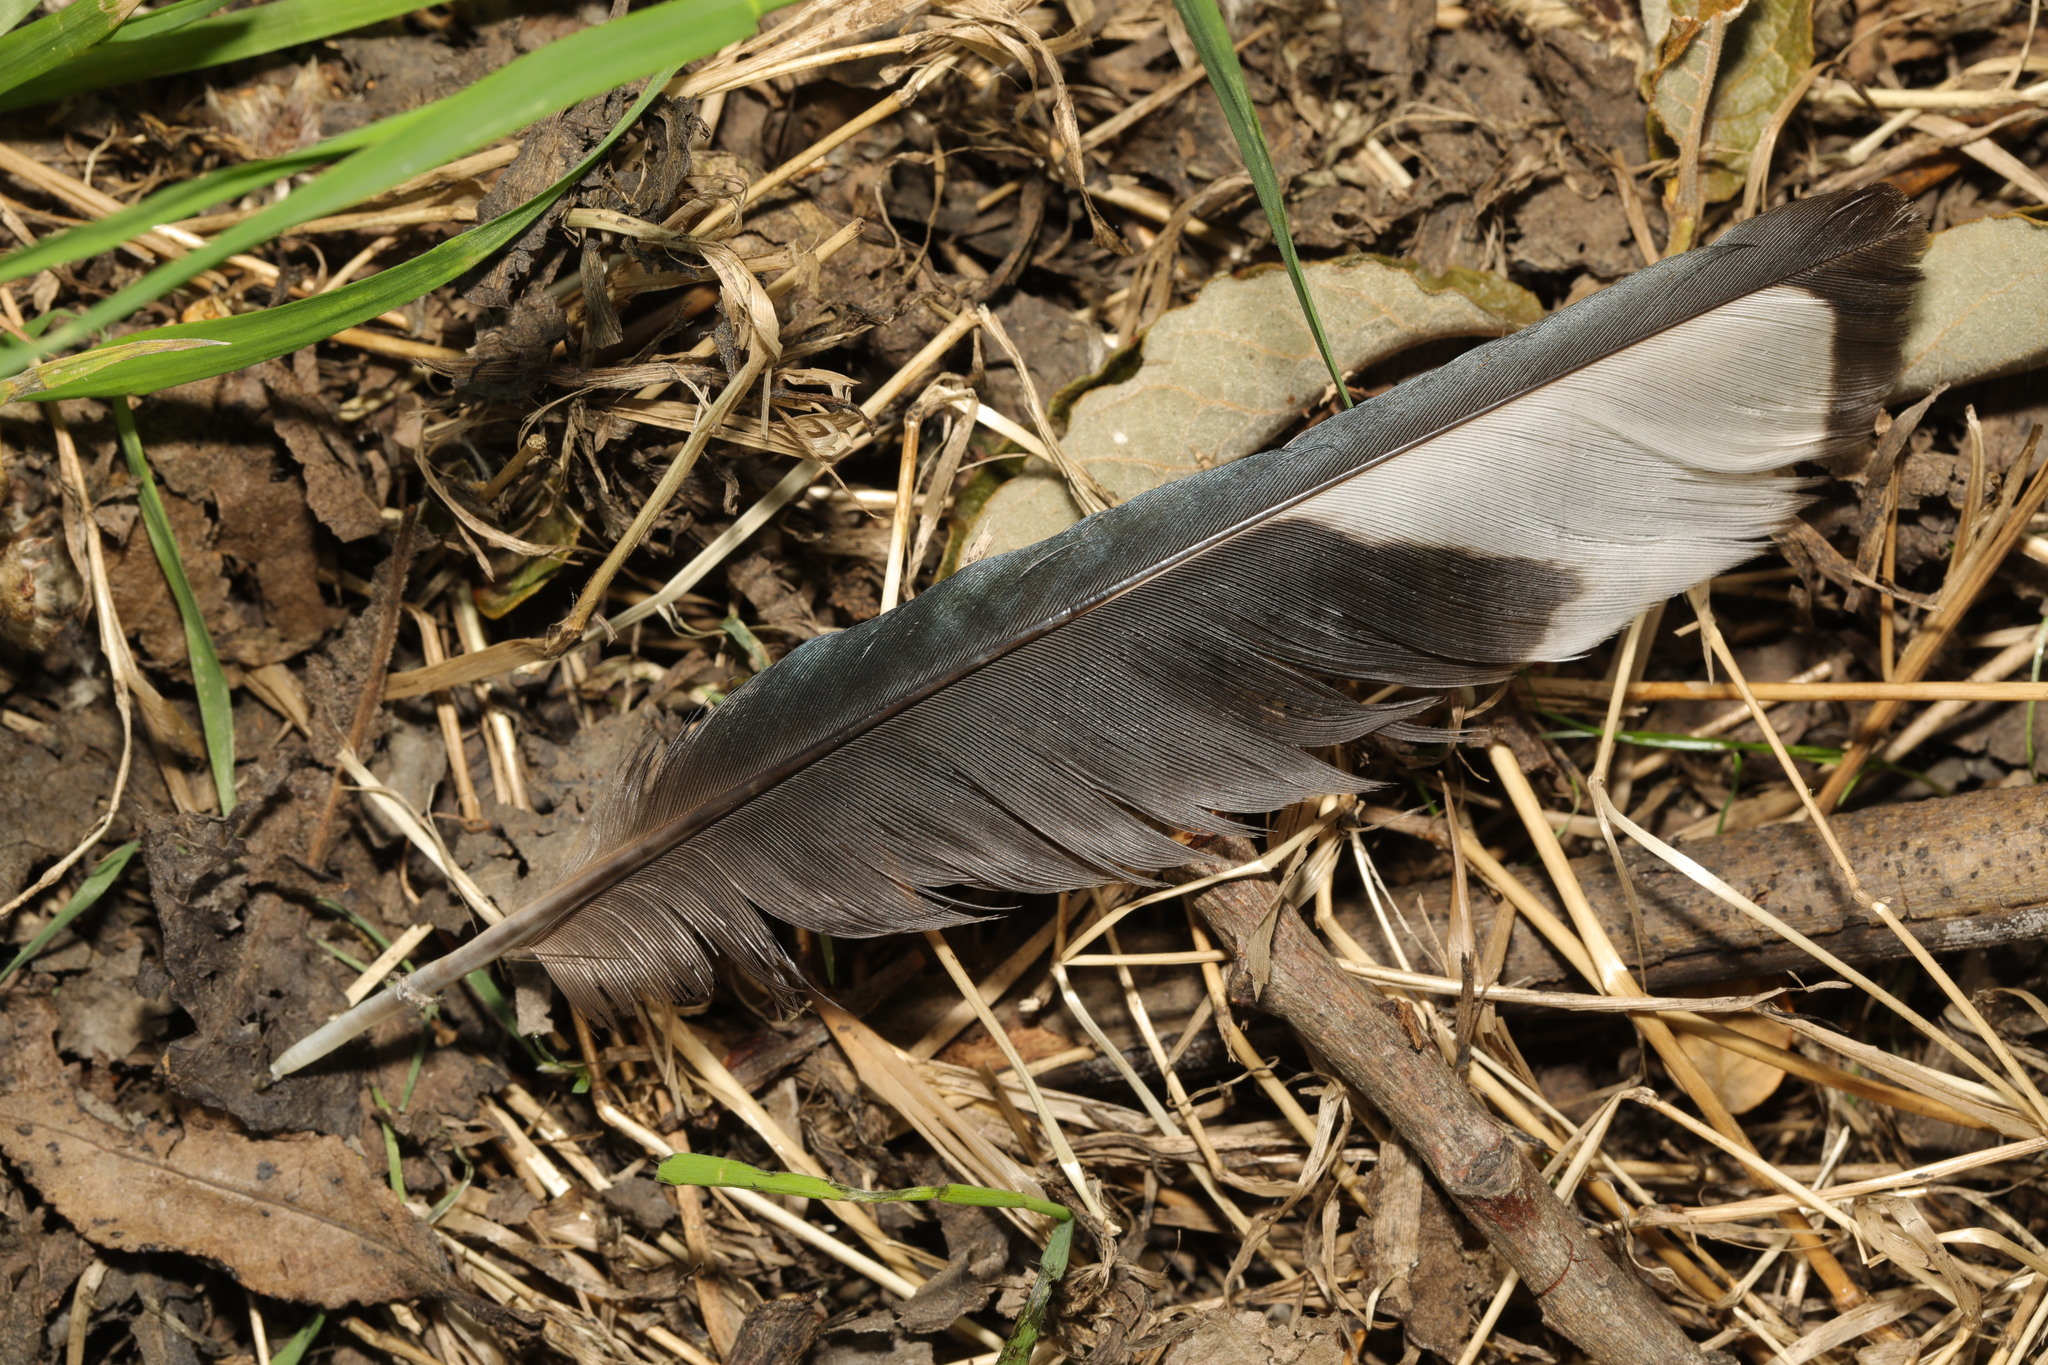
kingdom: Animalia
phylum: Chordata
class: Aves
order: Passeriformes
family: Corvidae
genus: Pica
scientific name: Pica pica
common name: Eurasian magpie
